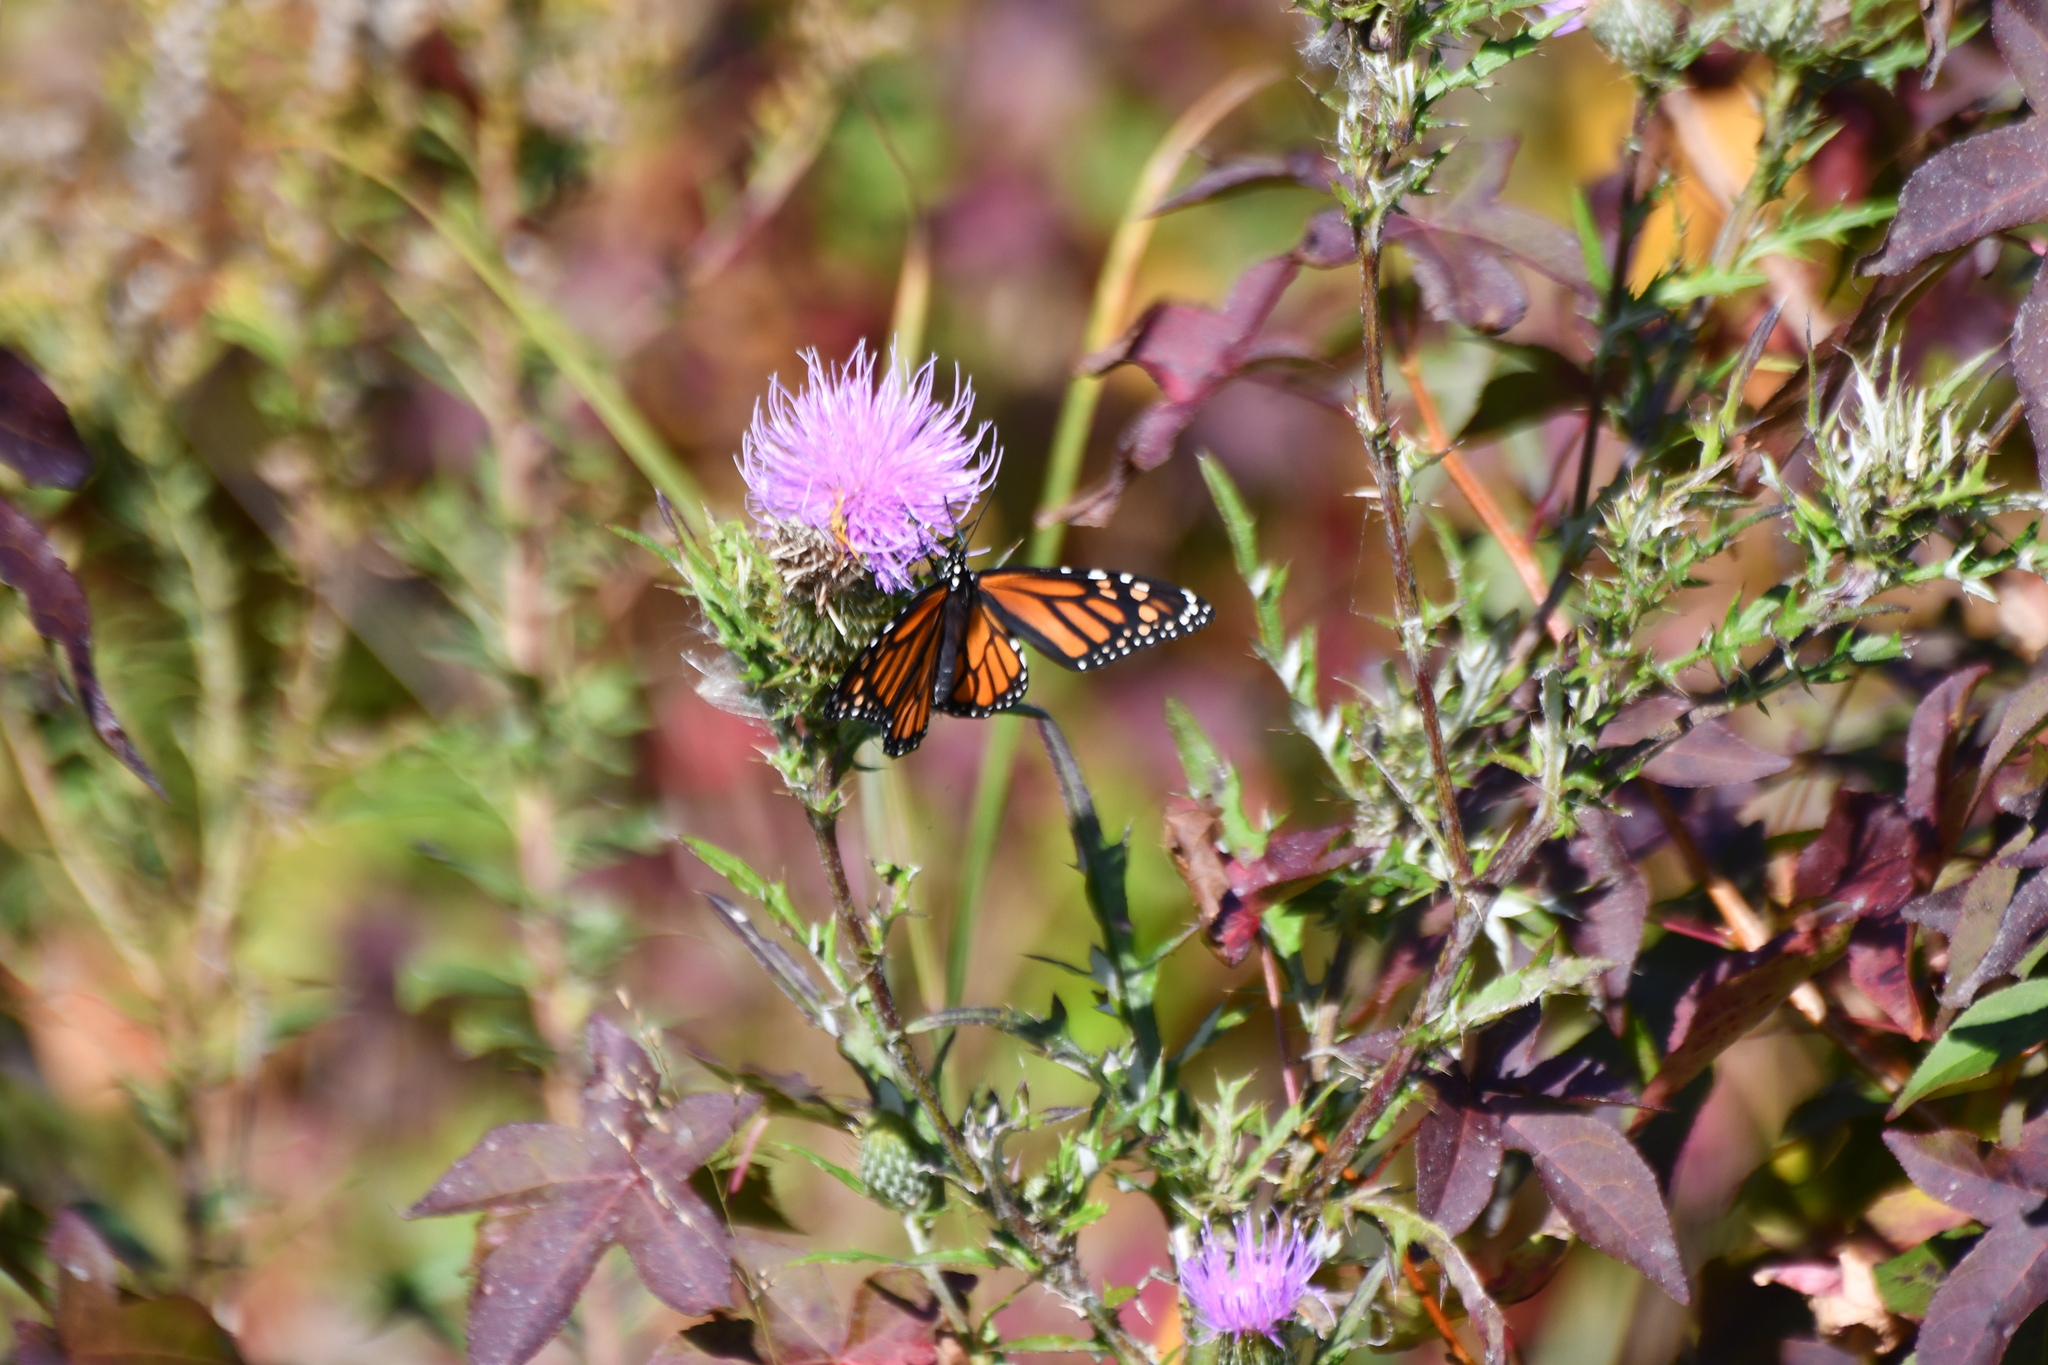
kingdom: Animalia
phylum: Arthropoda
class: Insecta
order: Lepidoptera
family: Nymphalidae
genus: Danaus
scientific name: Danaus plexippus
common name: Monarch
